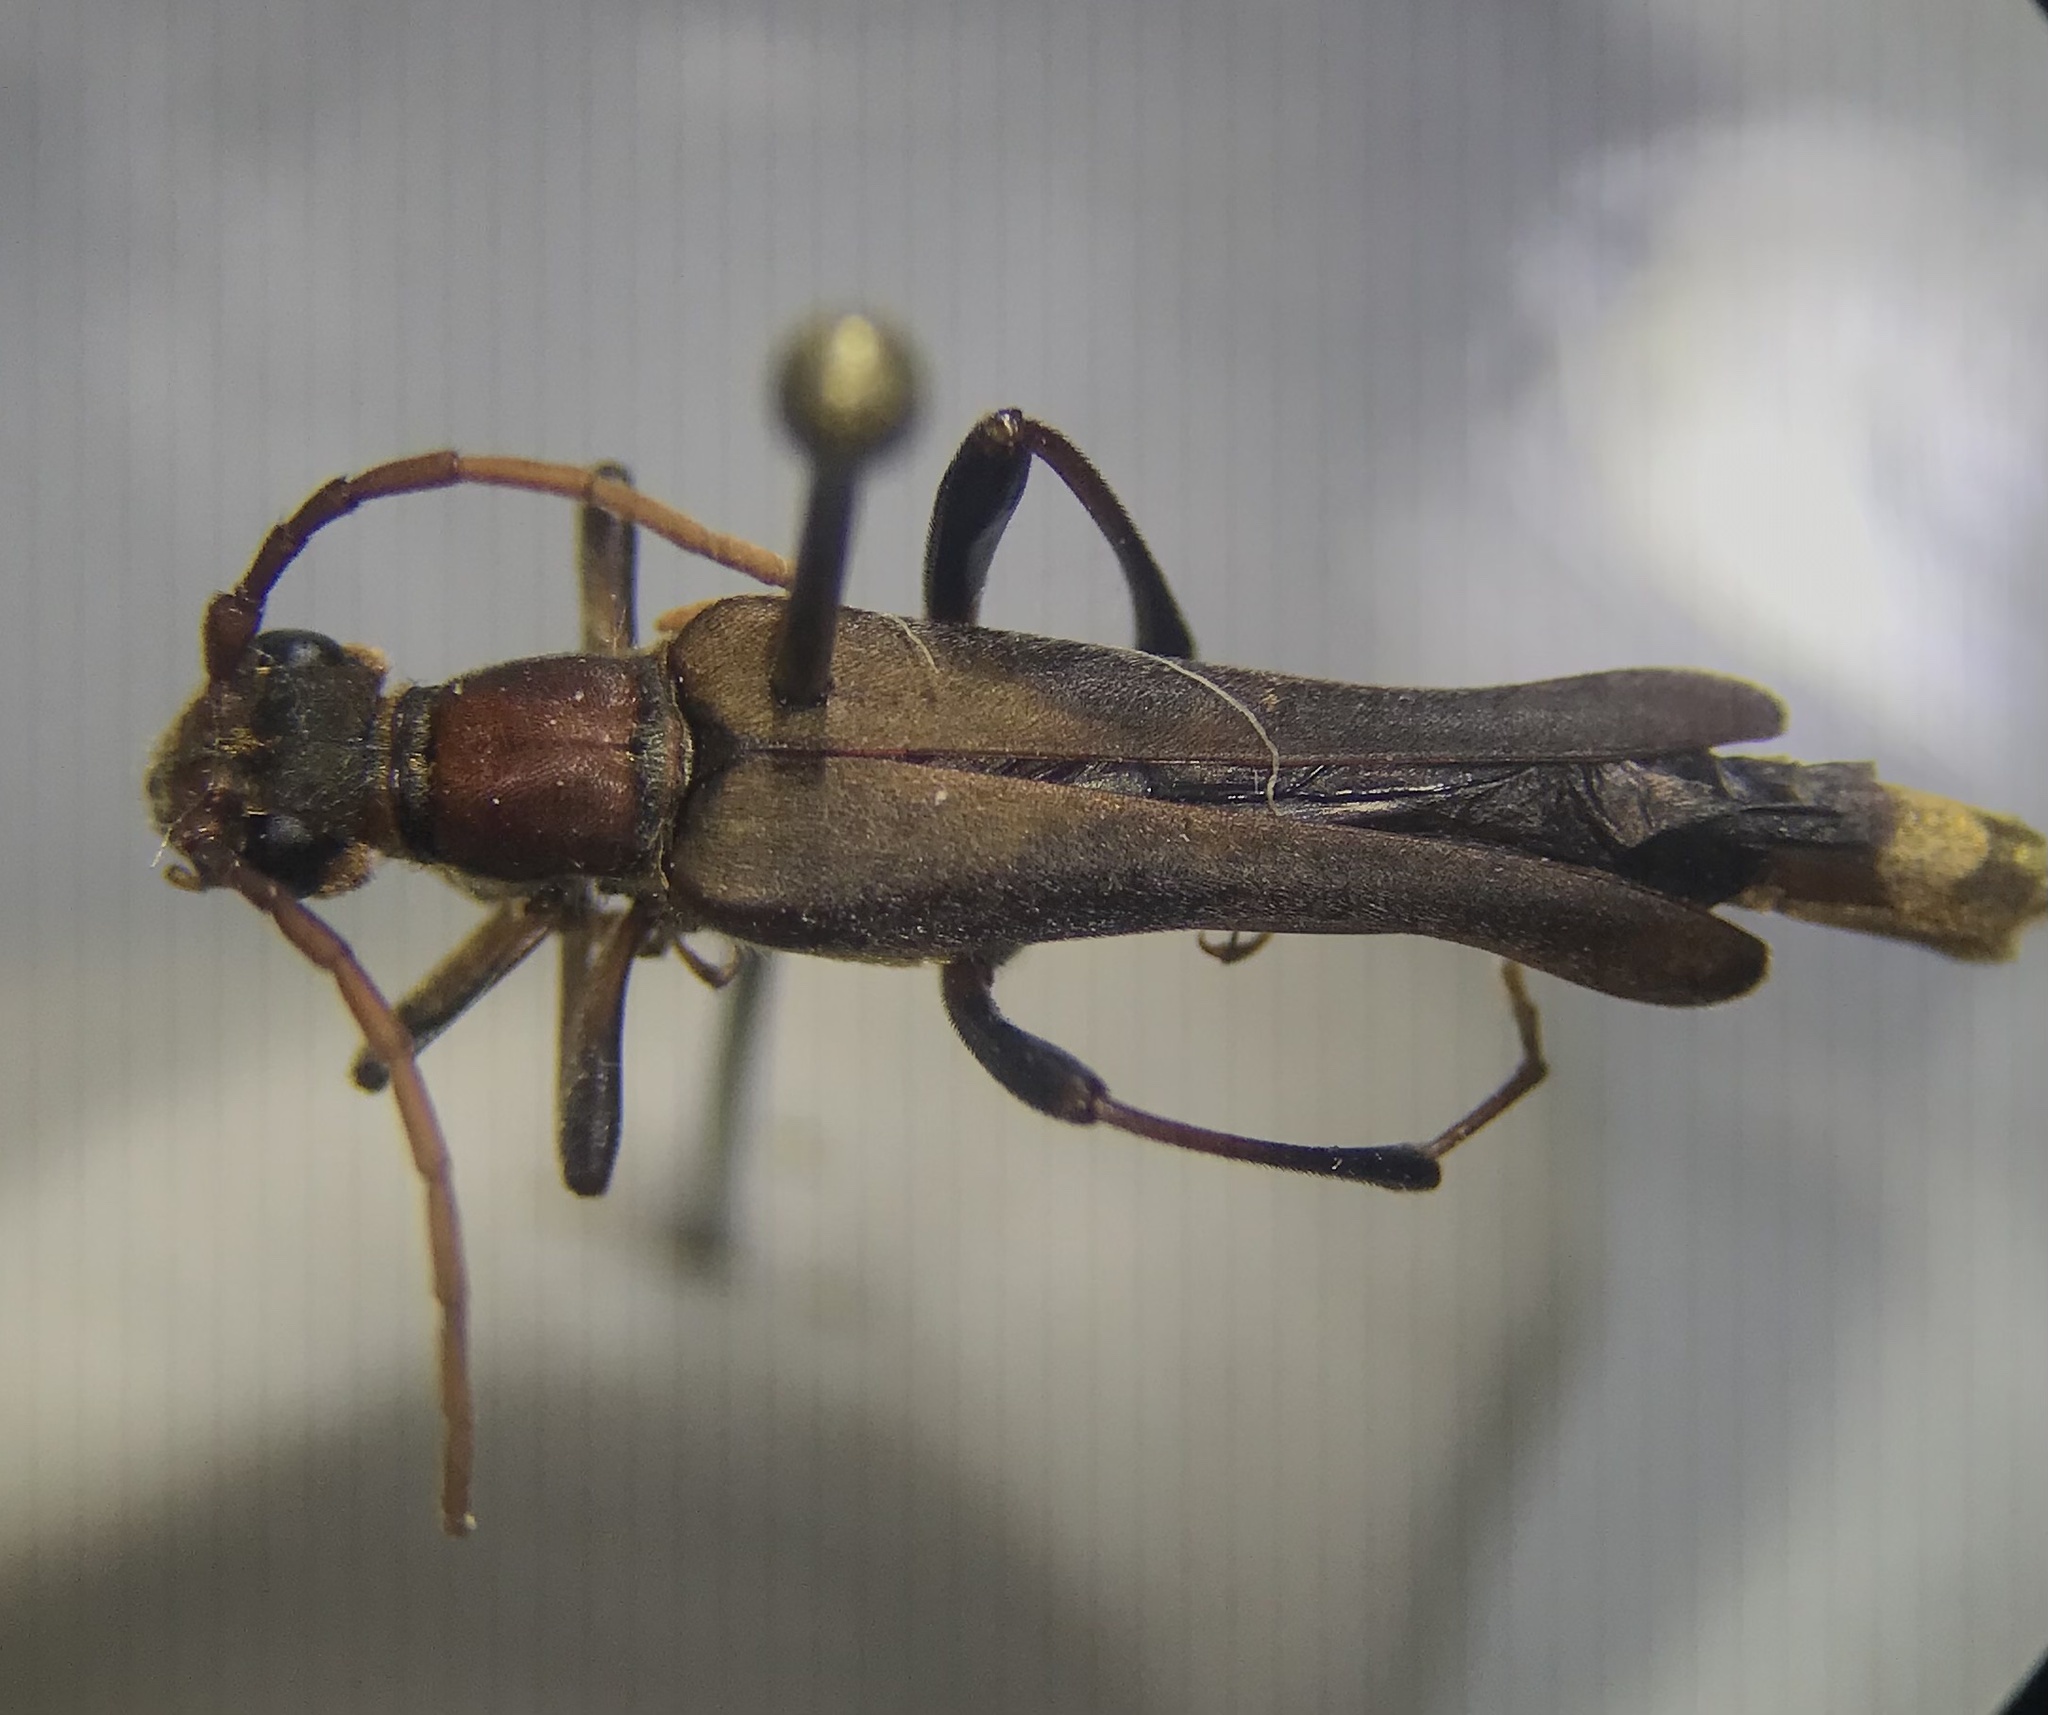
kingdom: Animalia
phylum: Arthropoda
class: Insecta
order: Coleoptera
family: Cerambycidae
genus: Bellamira
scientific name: Bellamira scalaris
